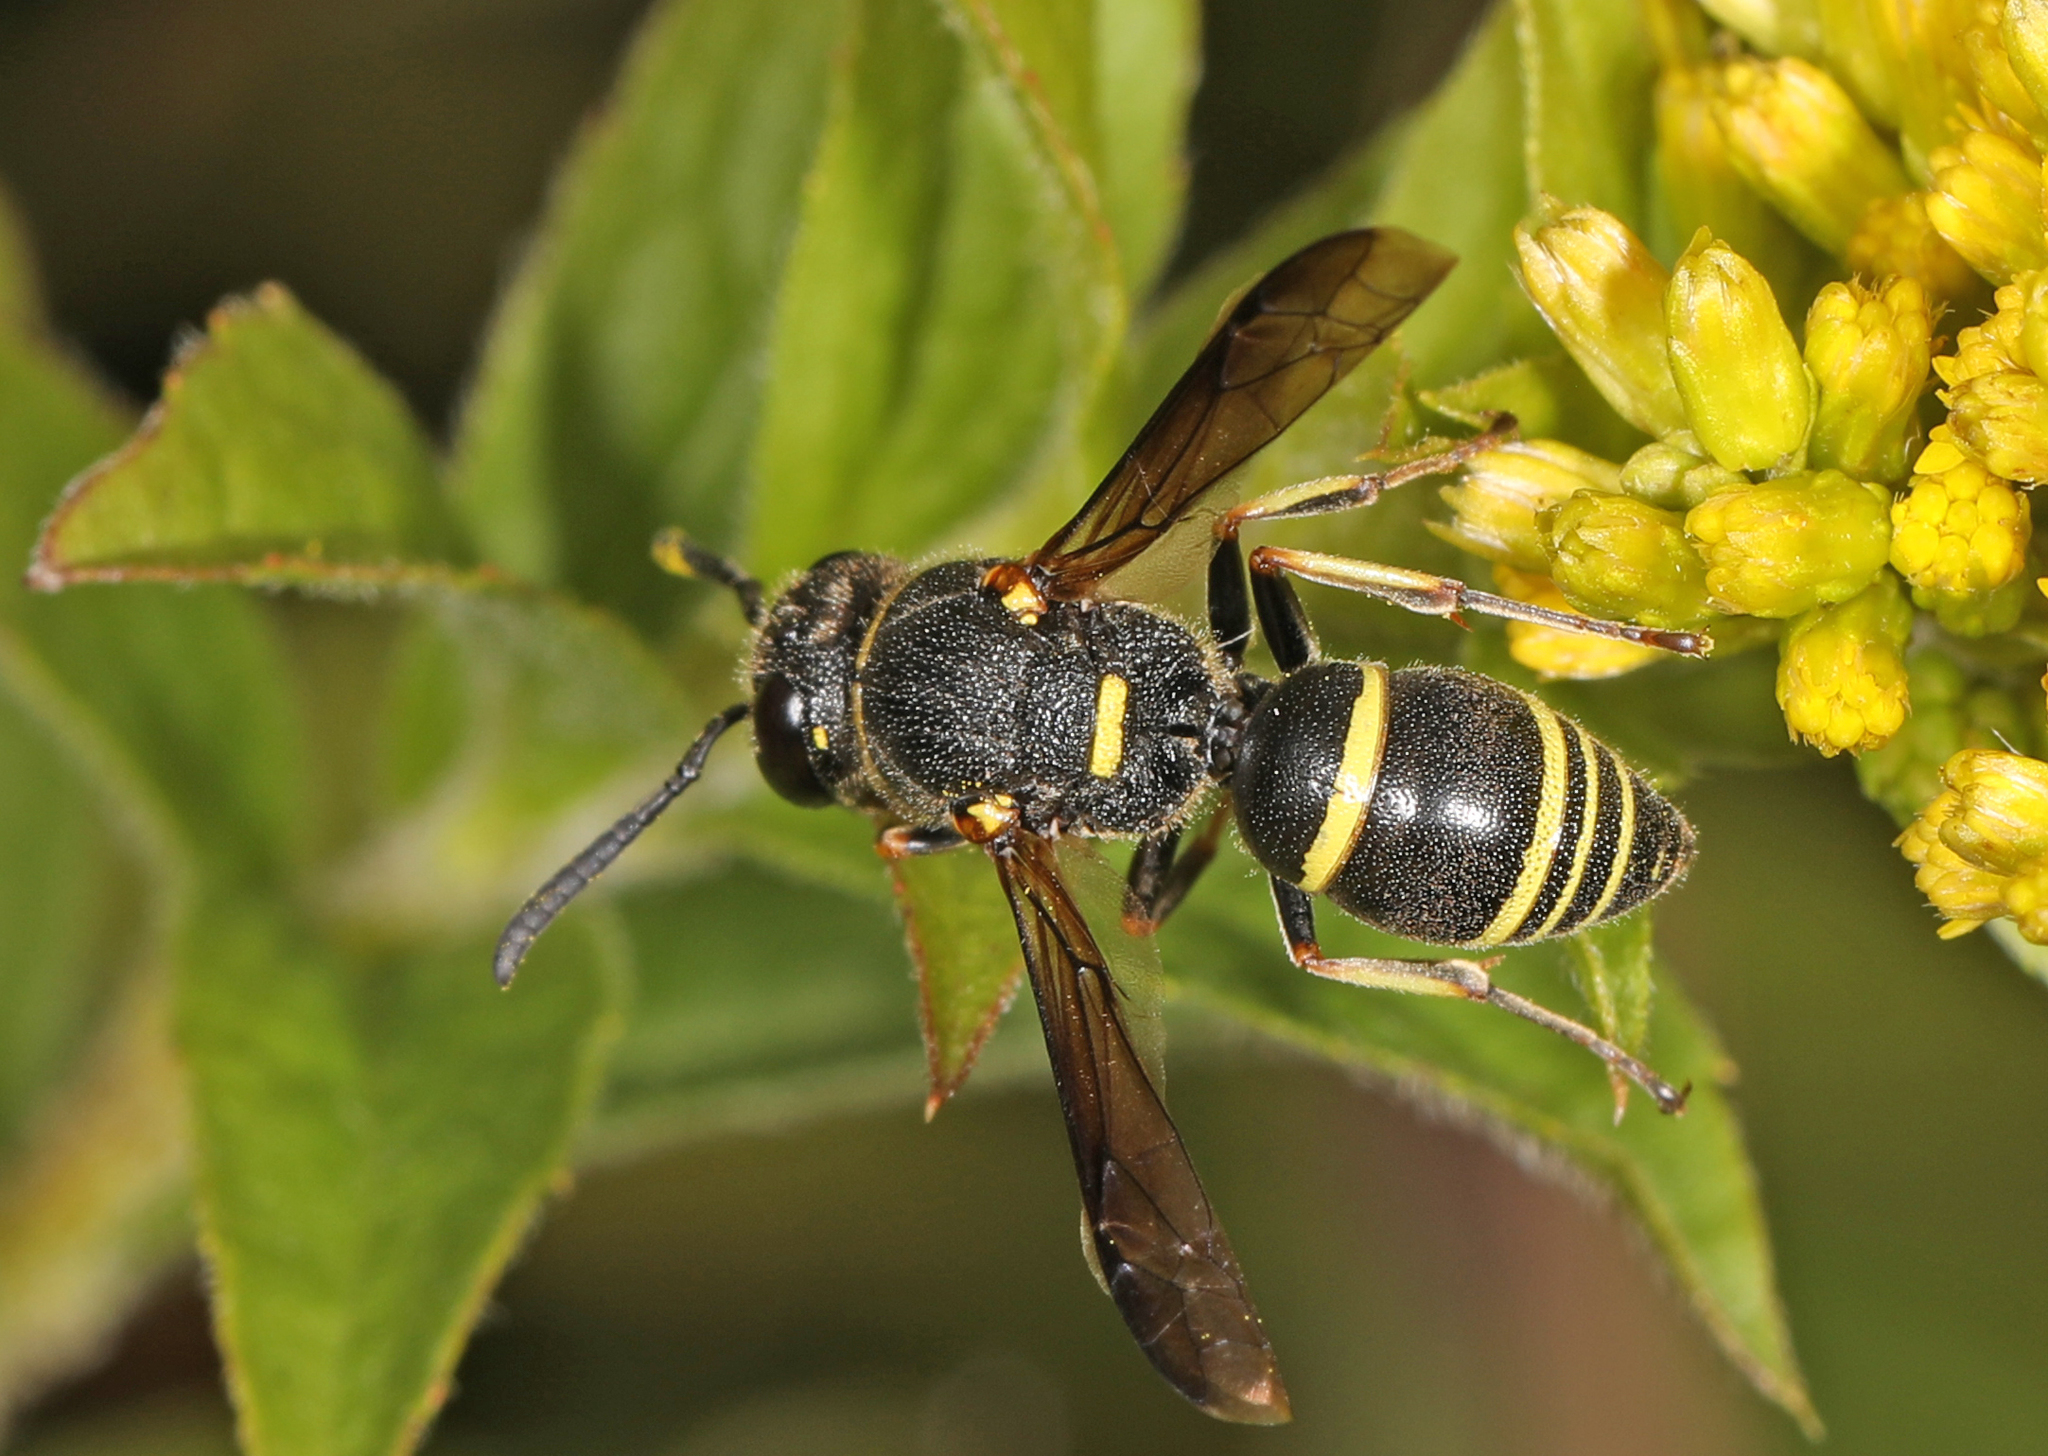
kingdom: Animalia
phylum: Arthropoda
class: Insecta
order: Hymenoptera
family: Eumenidae
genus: Euodynerus
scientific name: Euodynerus foraminatus
